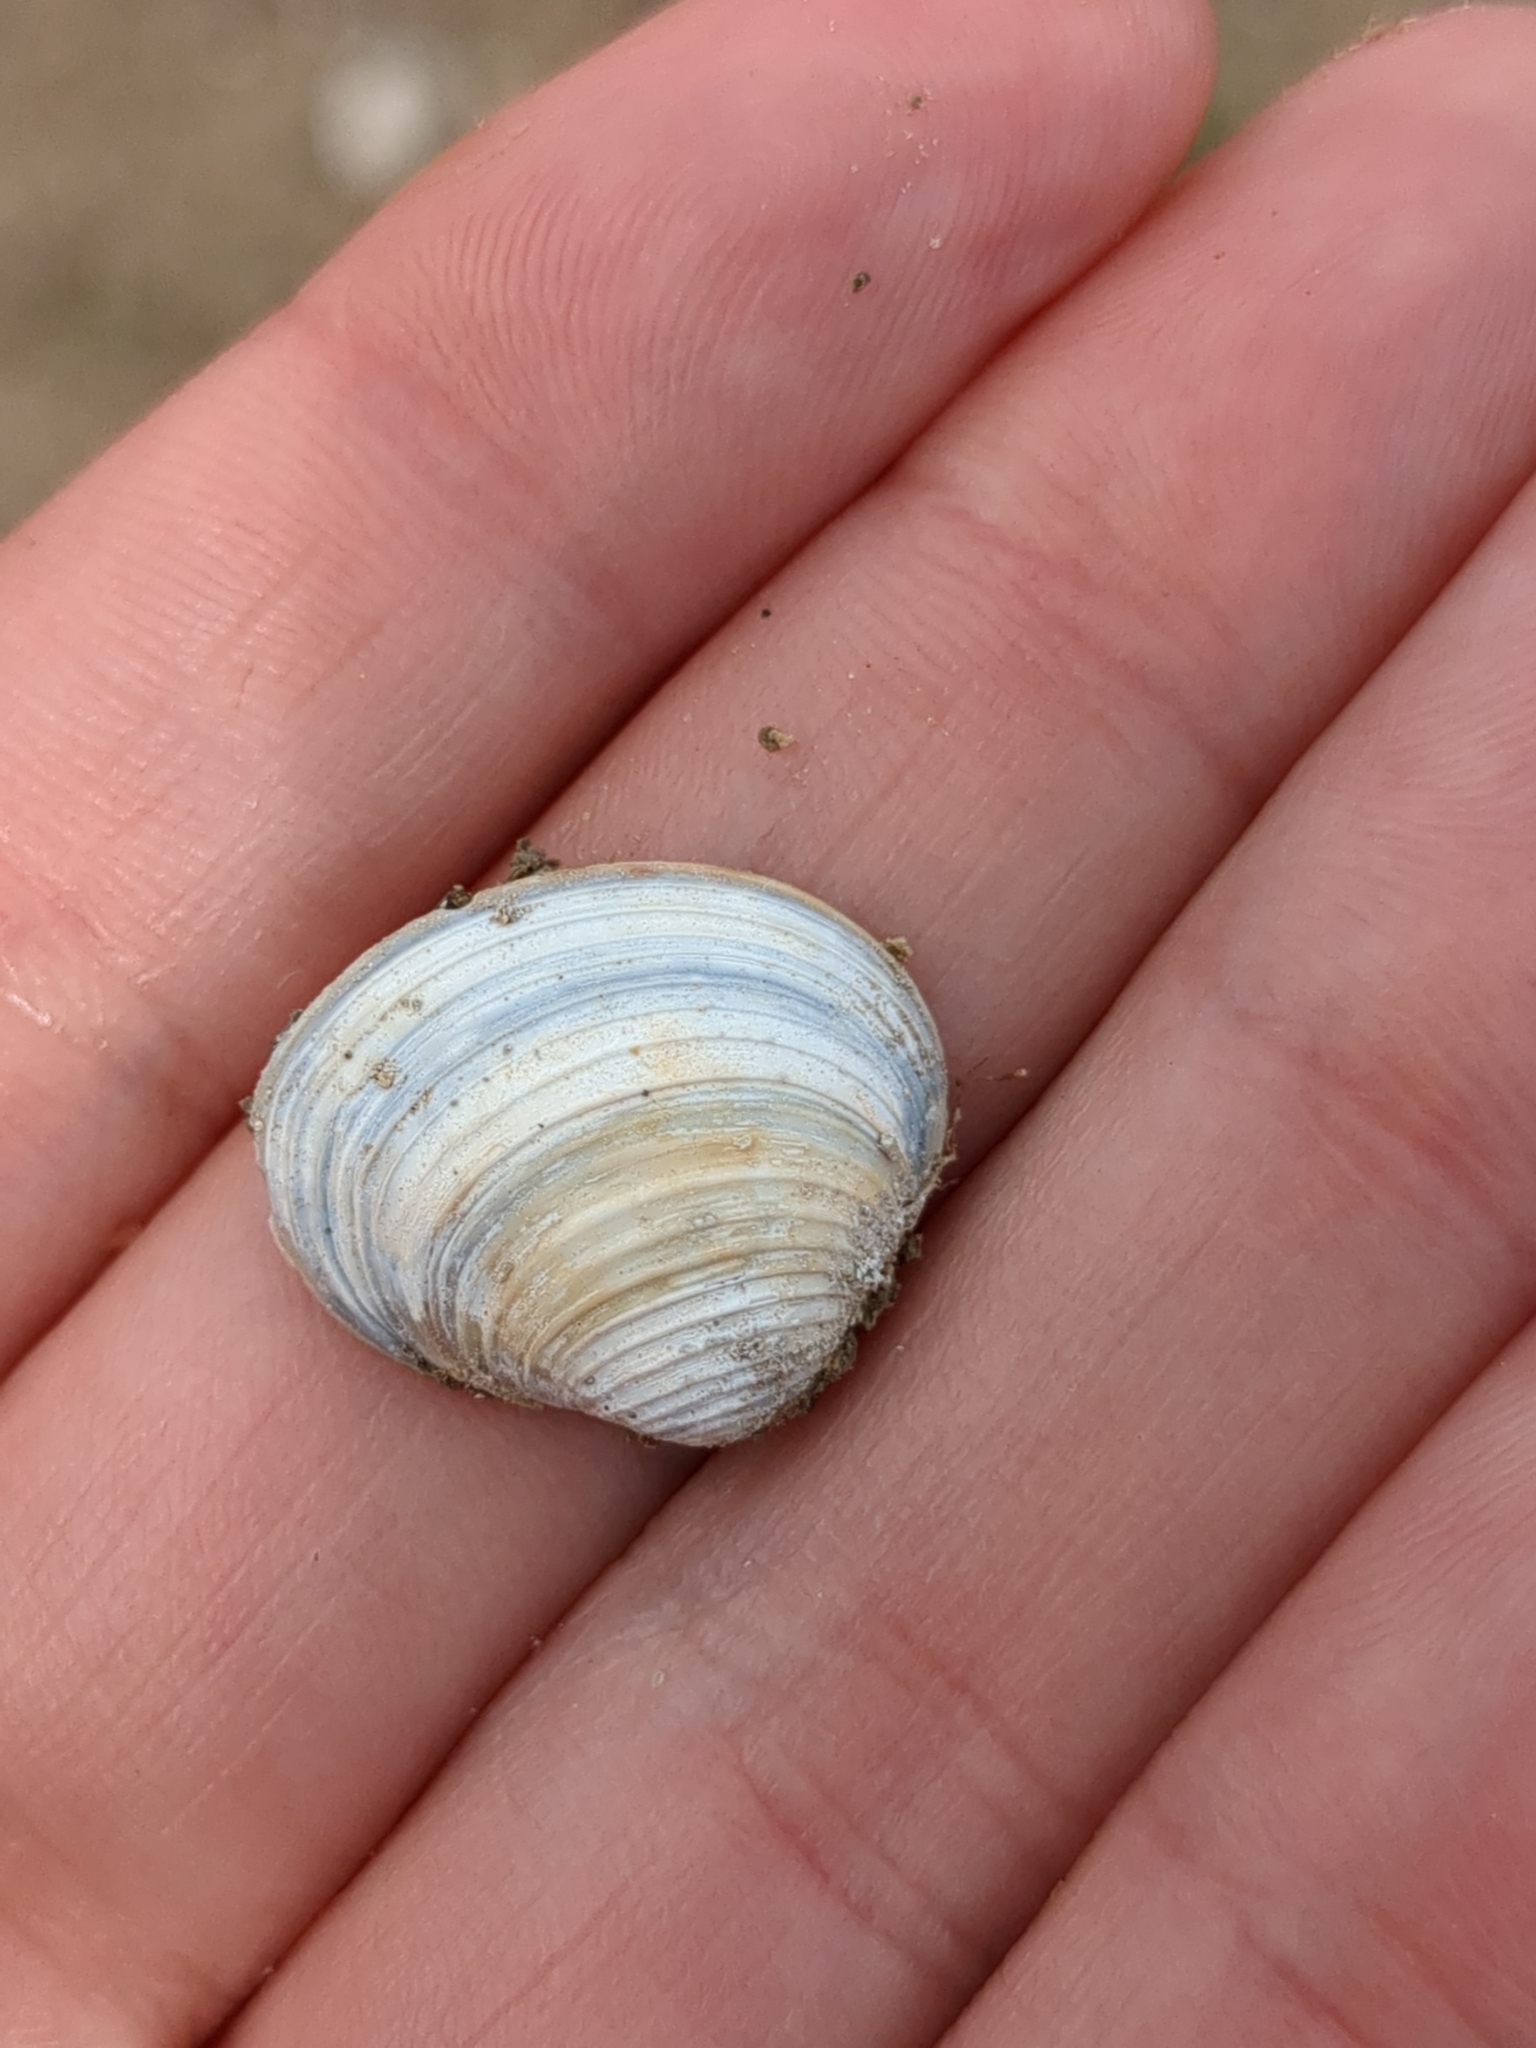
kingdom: Animalia
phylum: Mollusca
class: Bivalvia
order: Venerida
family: Cyrenidae
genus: Corbicula
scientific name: Corbicula fluminea
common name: Asian clam
